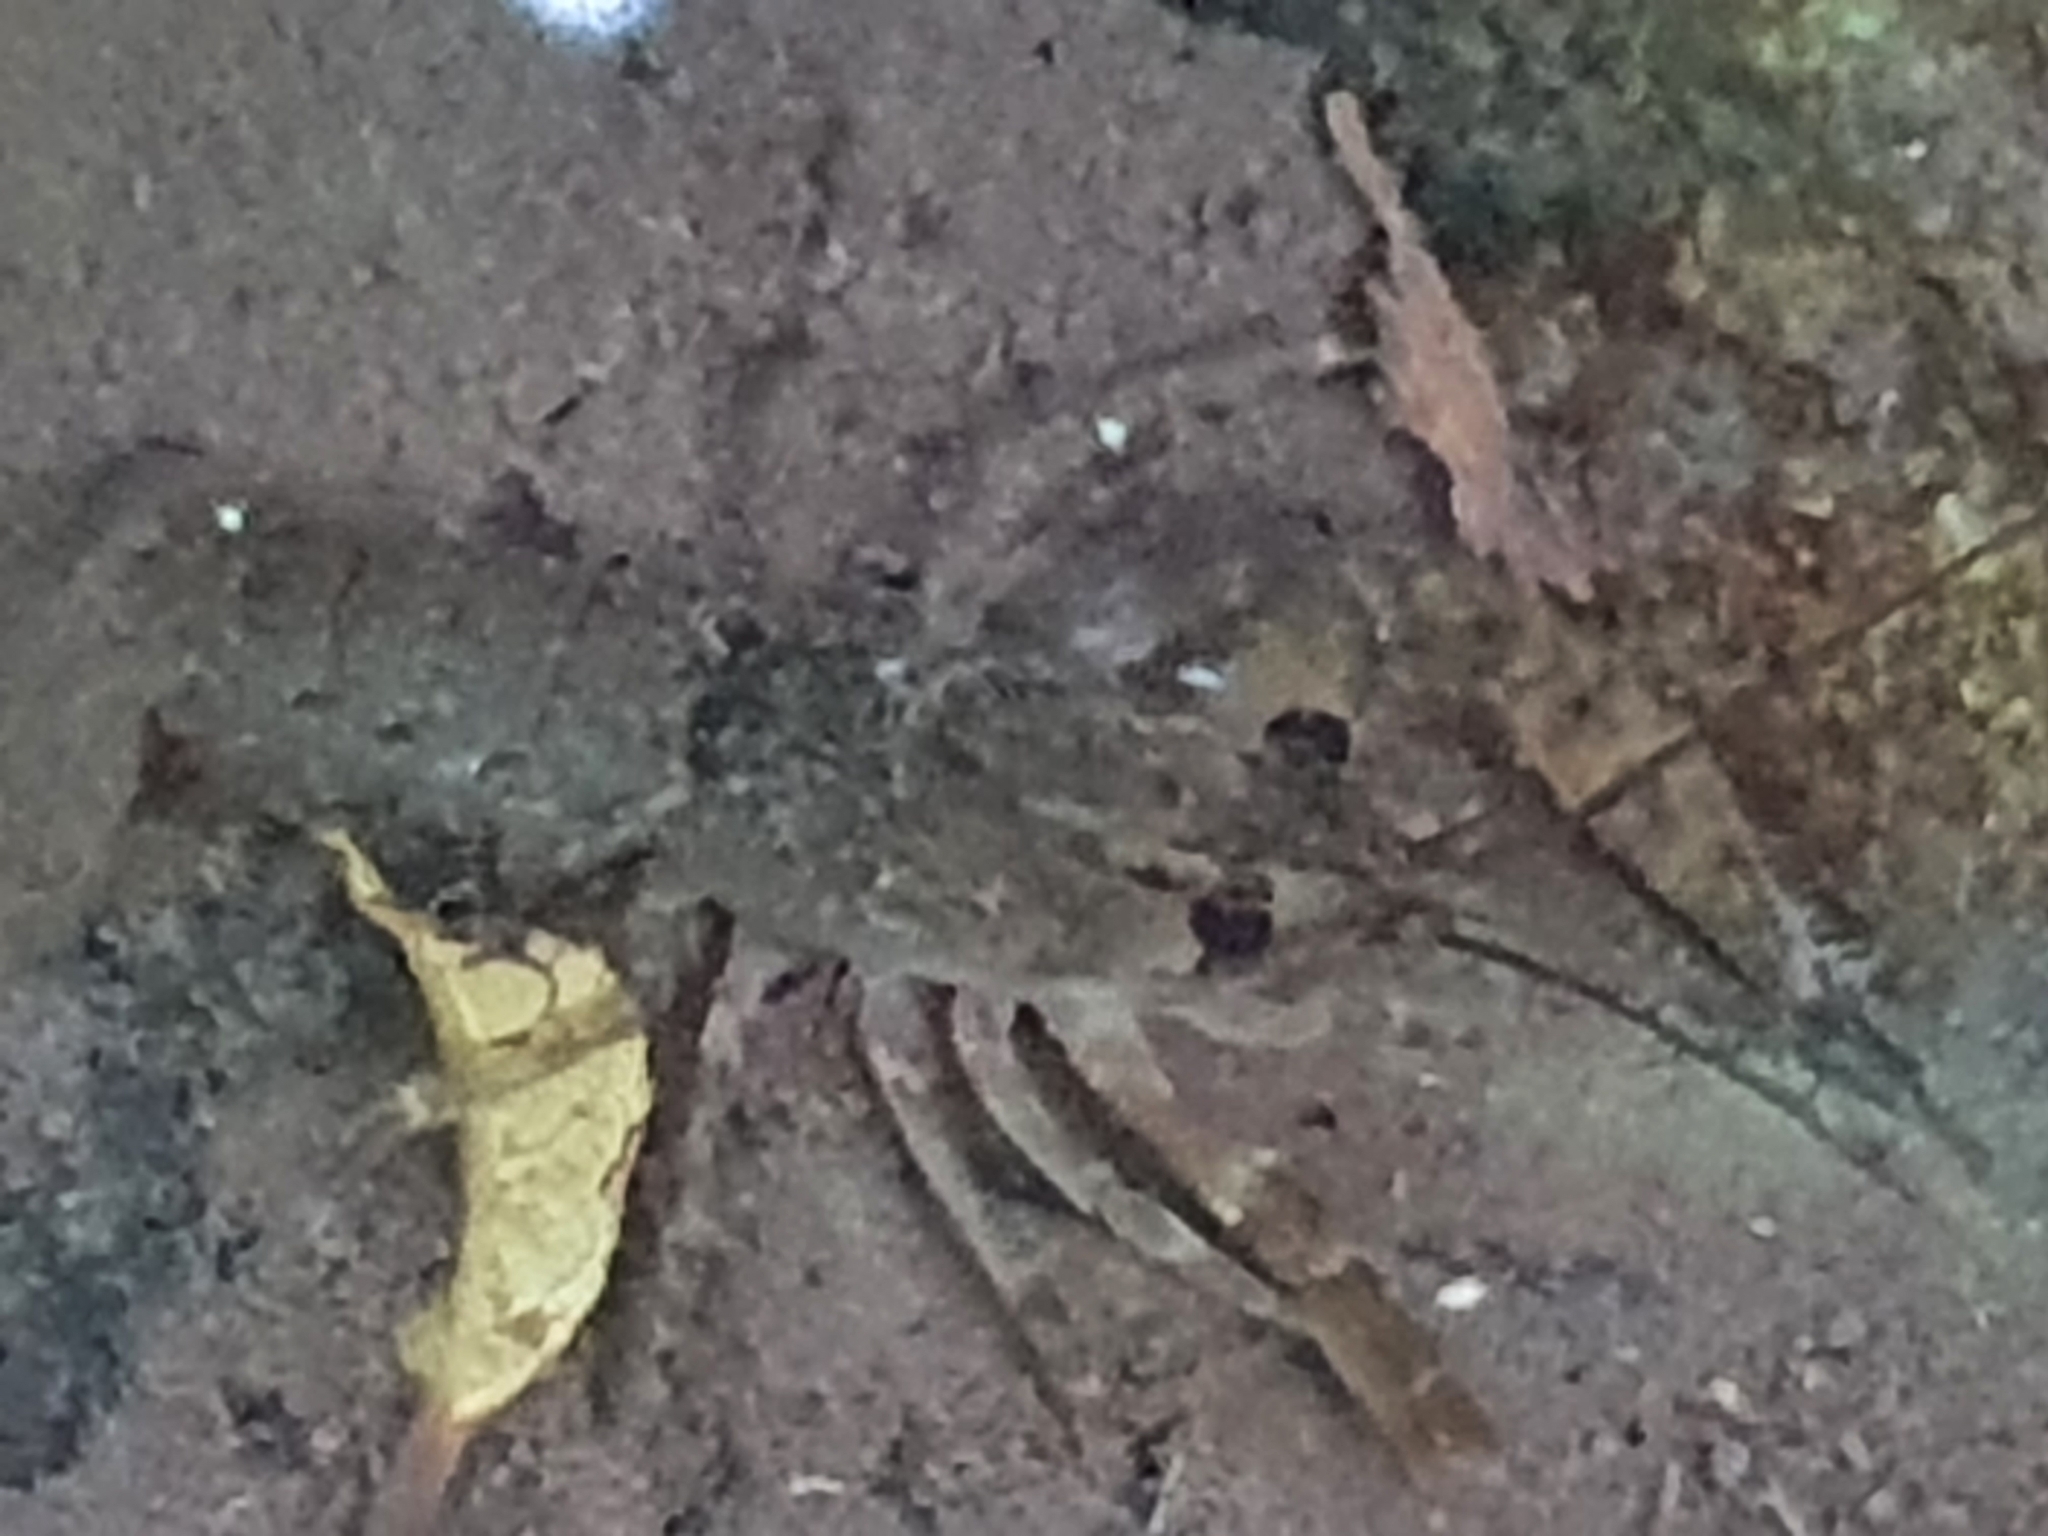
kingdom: Animalia
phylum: Arthropoda
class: Malacostraca
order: Decapoda
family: Parastacidae
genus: Paranephrops
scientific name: Paranephrops planifrons
